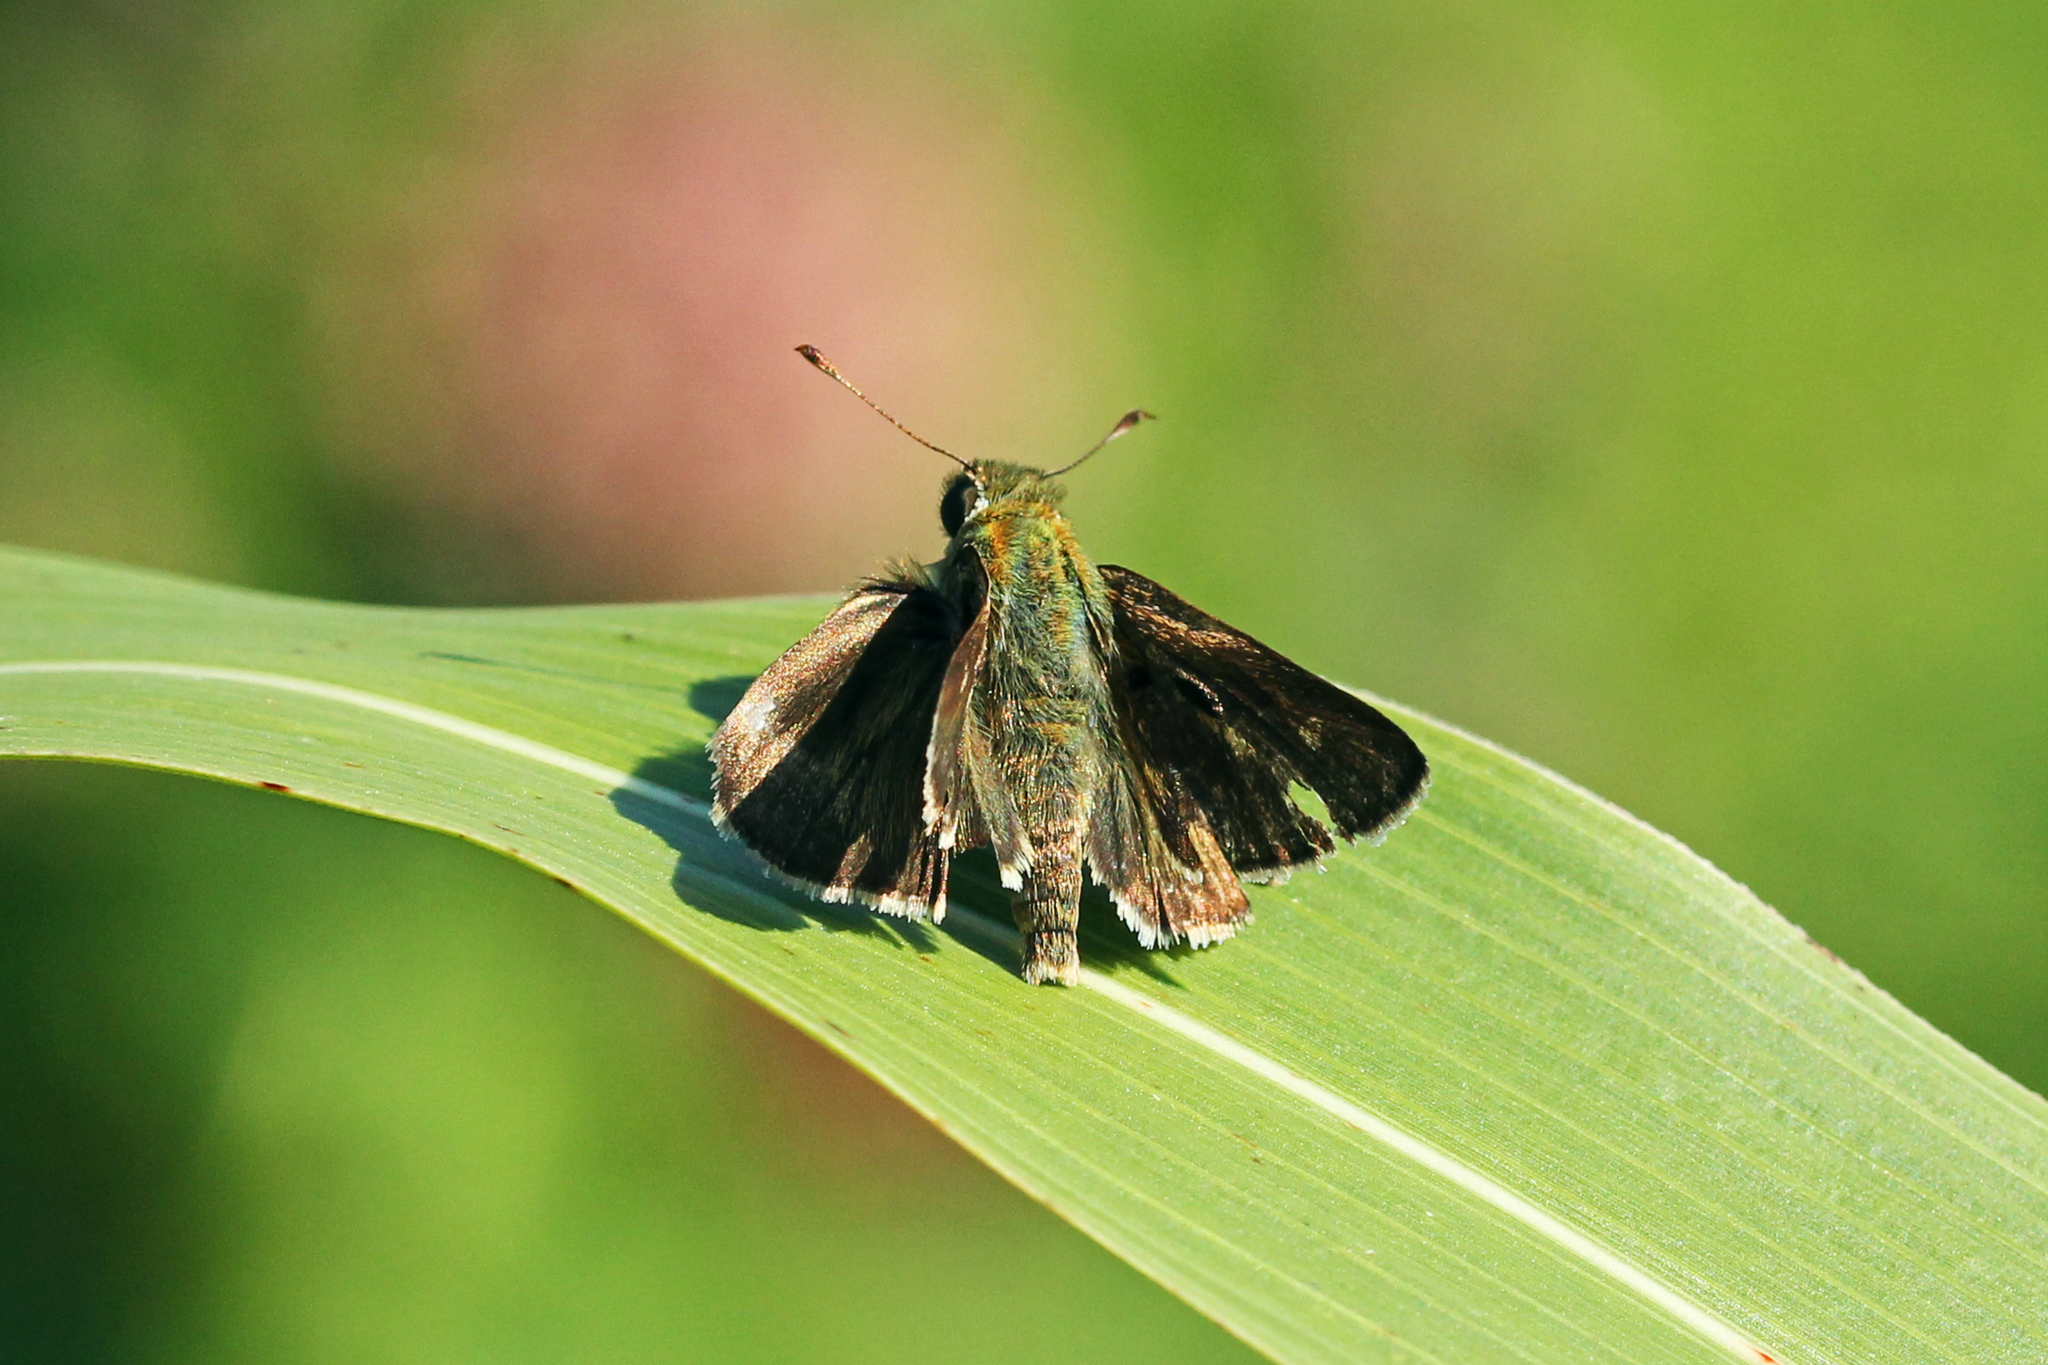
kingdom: Animalia
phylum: Arthropoda
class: Insecta
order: Lepidoptera
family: Hesperiidae
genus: Euphyes
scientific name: Euphyes vestris
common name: Dun skipper
